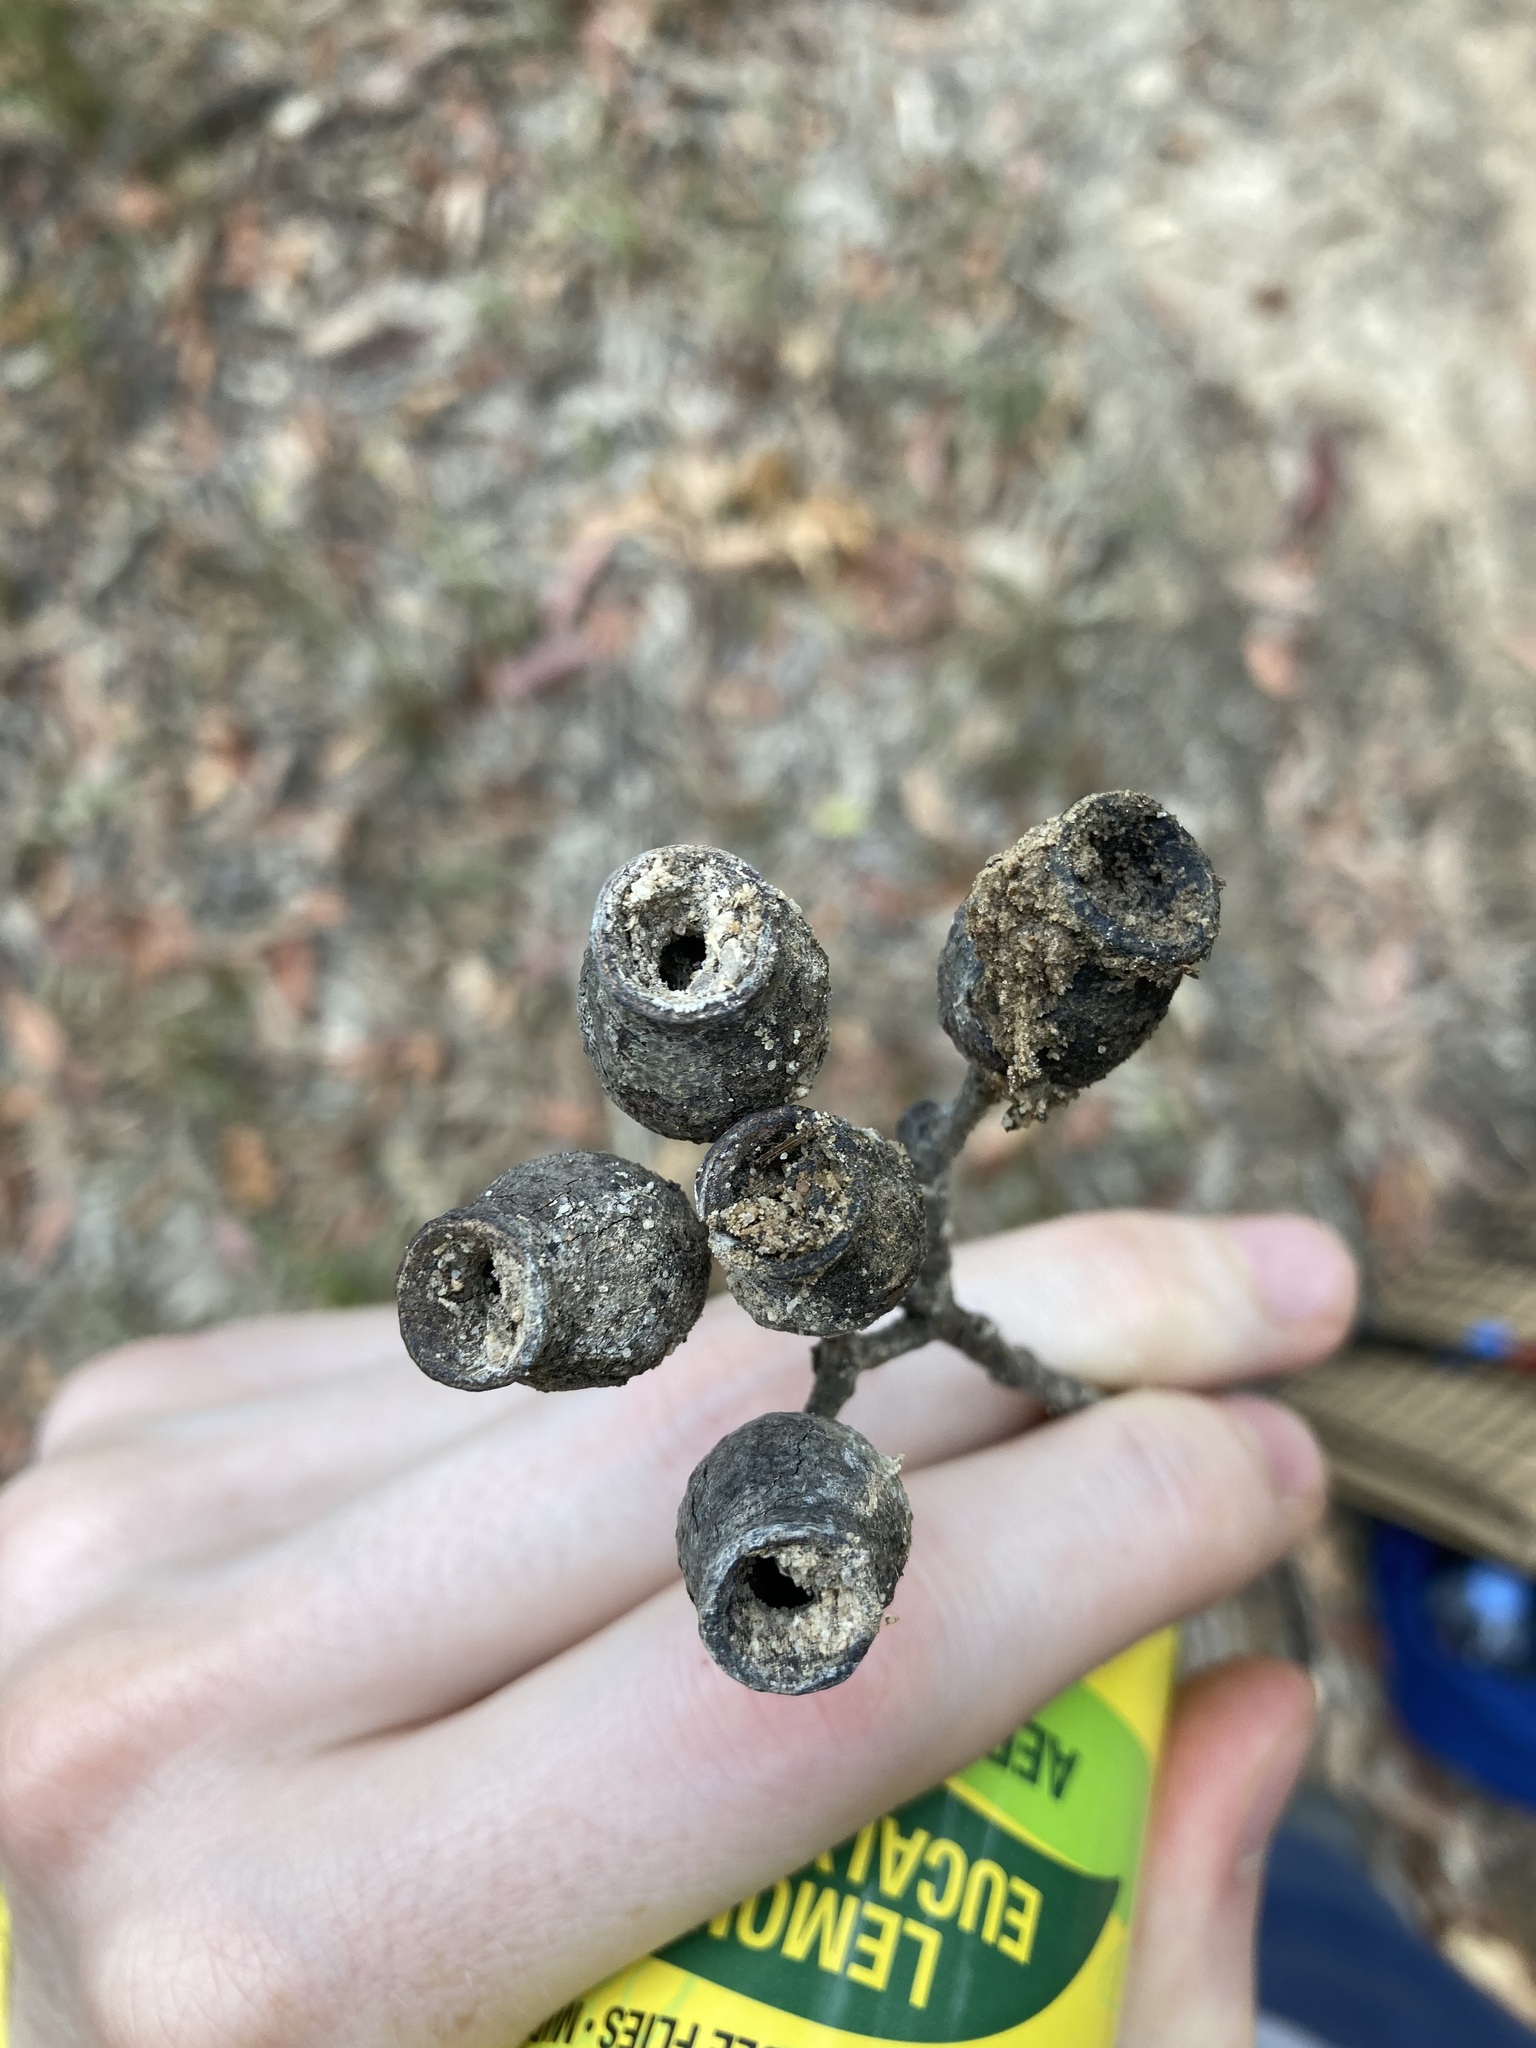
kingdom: Plantae
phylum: Tracheophyta
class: Magnoliopsida
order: Myrtales
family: Myrtaceae
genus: Corymbia
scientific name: Corymbia gummifera
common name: Red bloodwood
